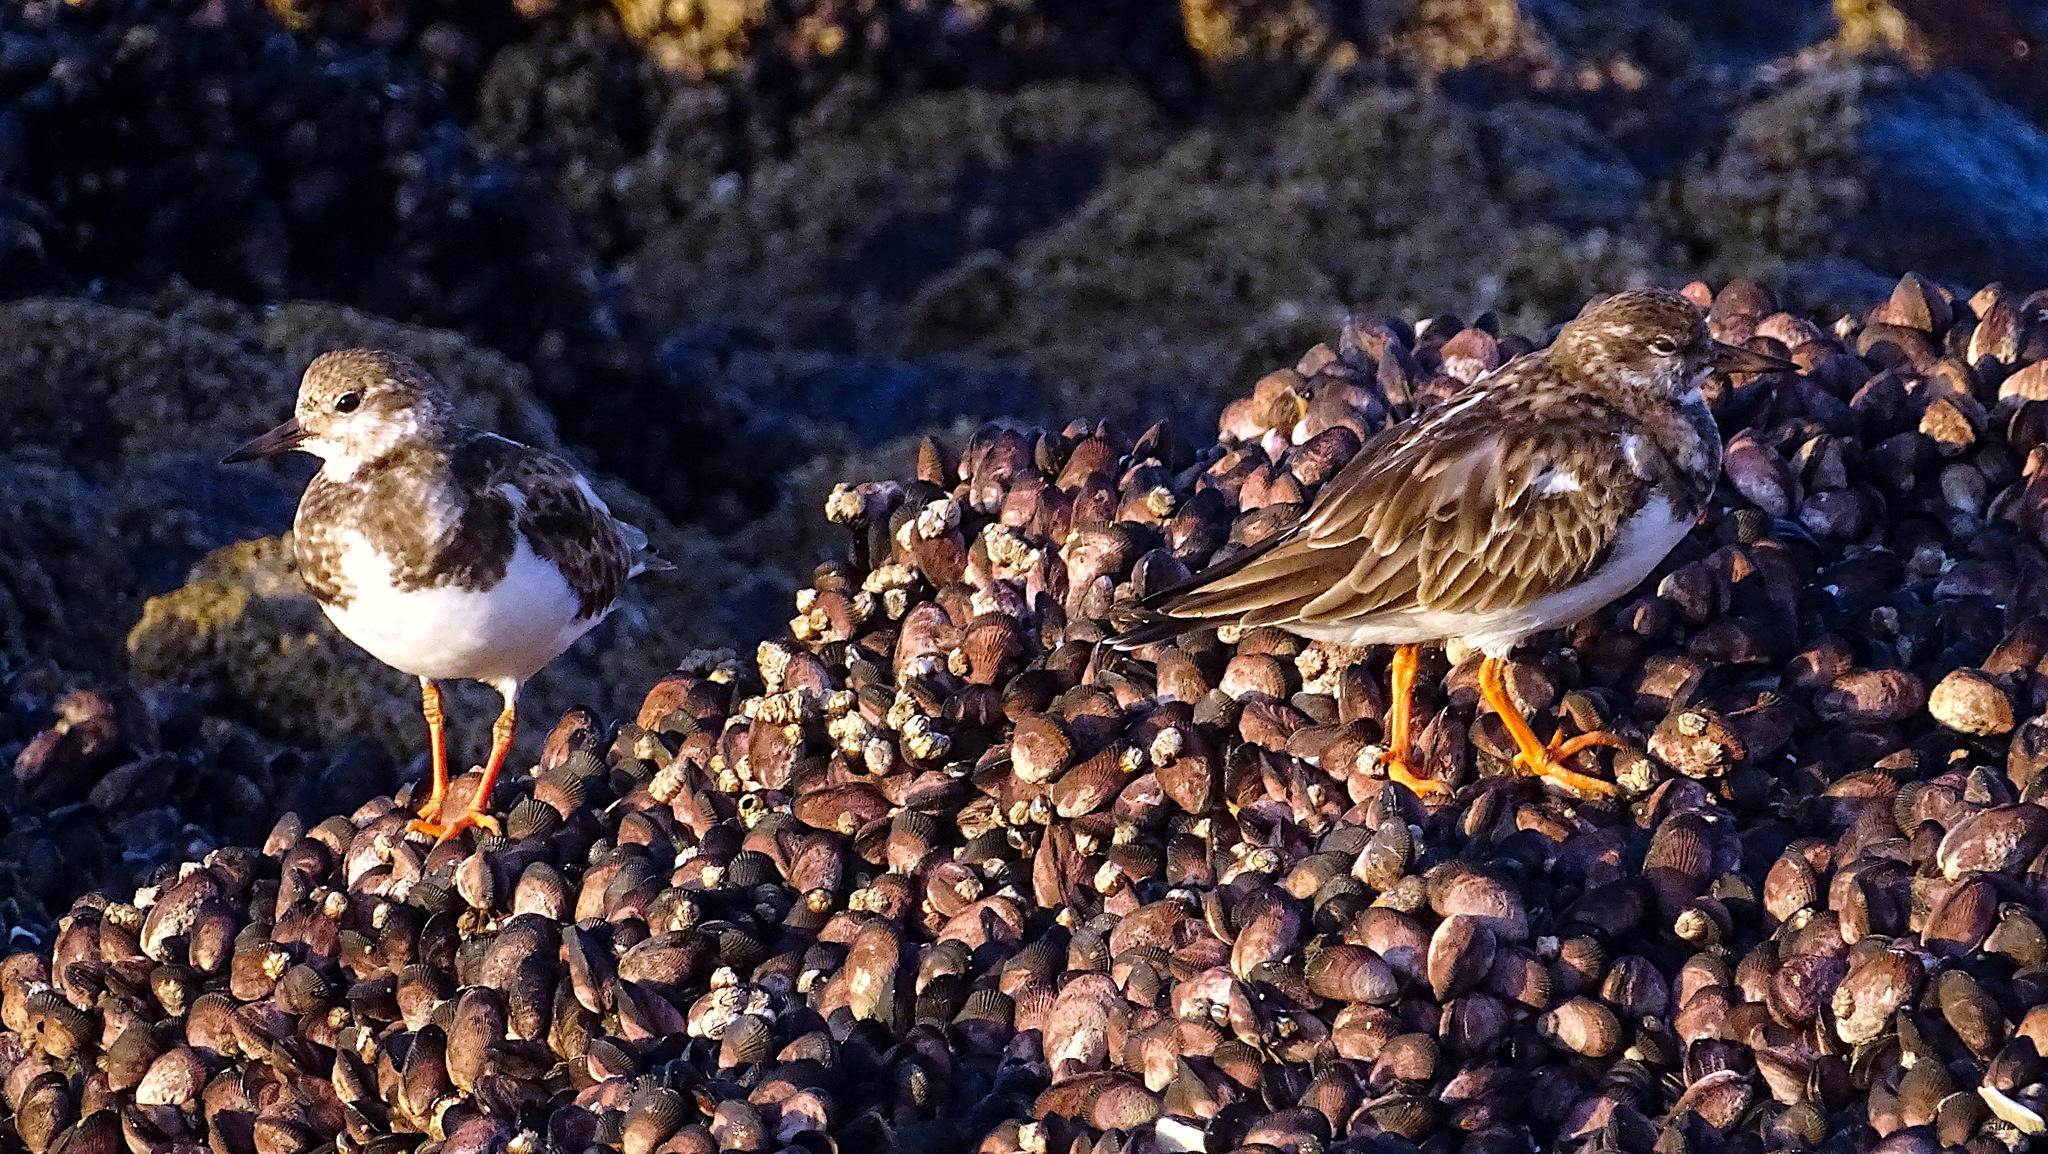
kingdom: Animalia
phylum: Chordata
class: Aves
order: Charadriiformes
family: Scolopacidae
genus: Arenaria
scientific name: Arenaria interpres
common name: Ruddy turnstone
